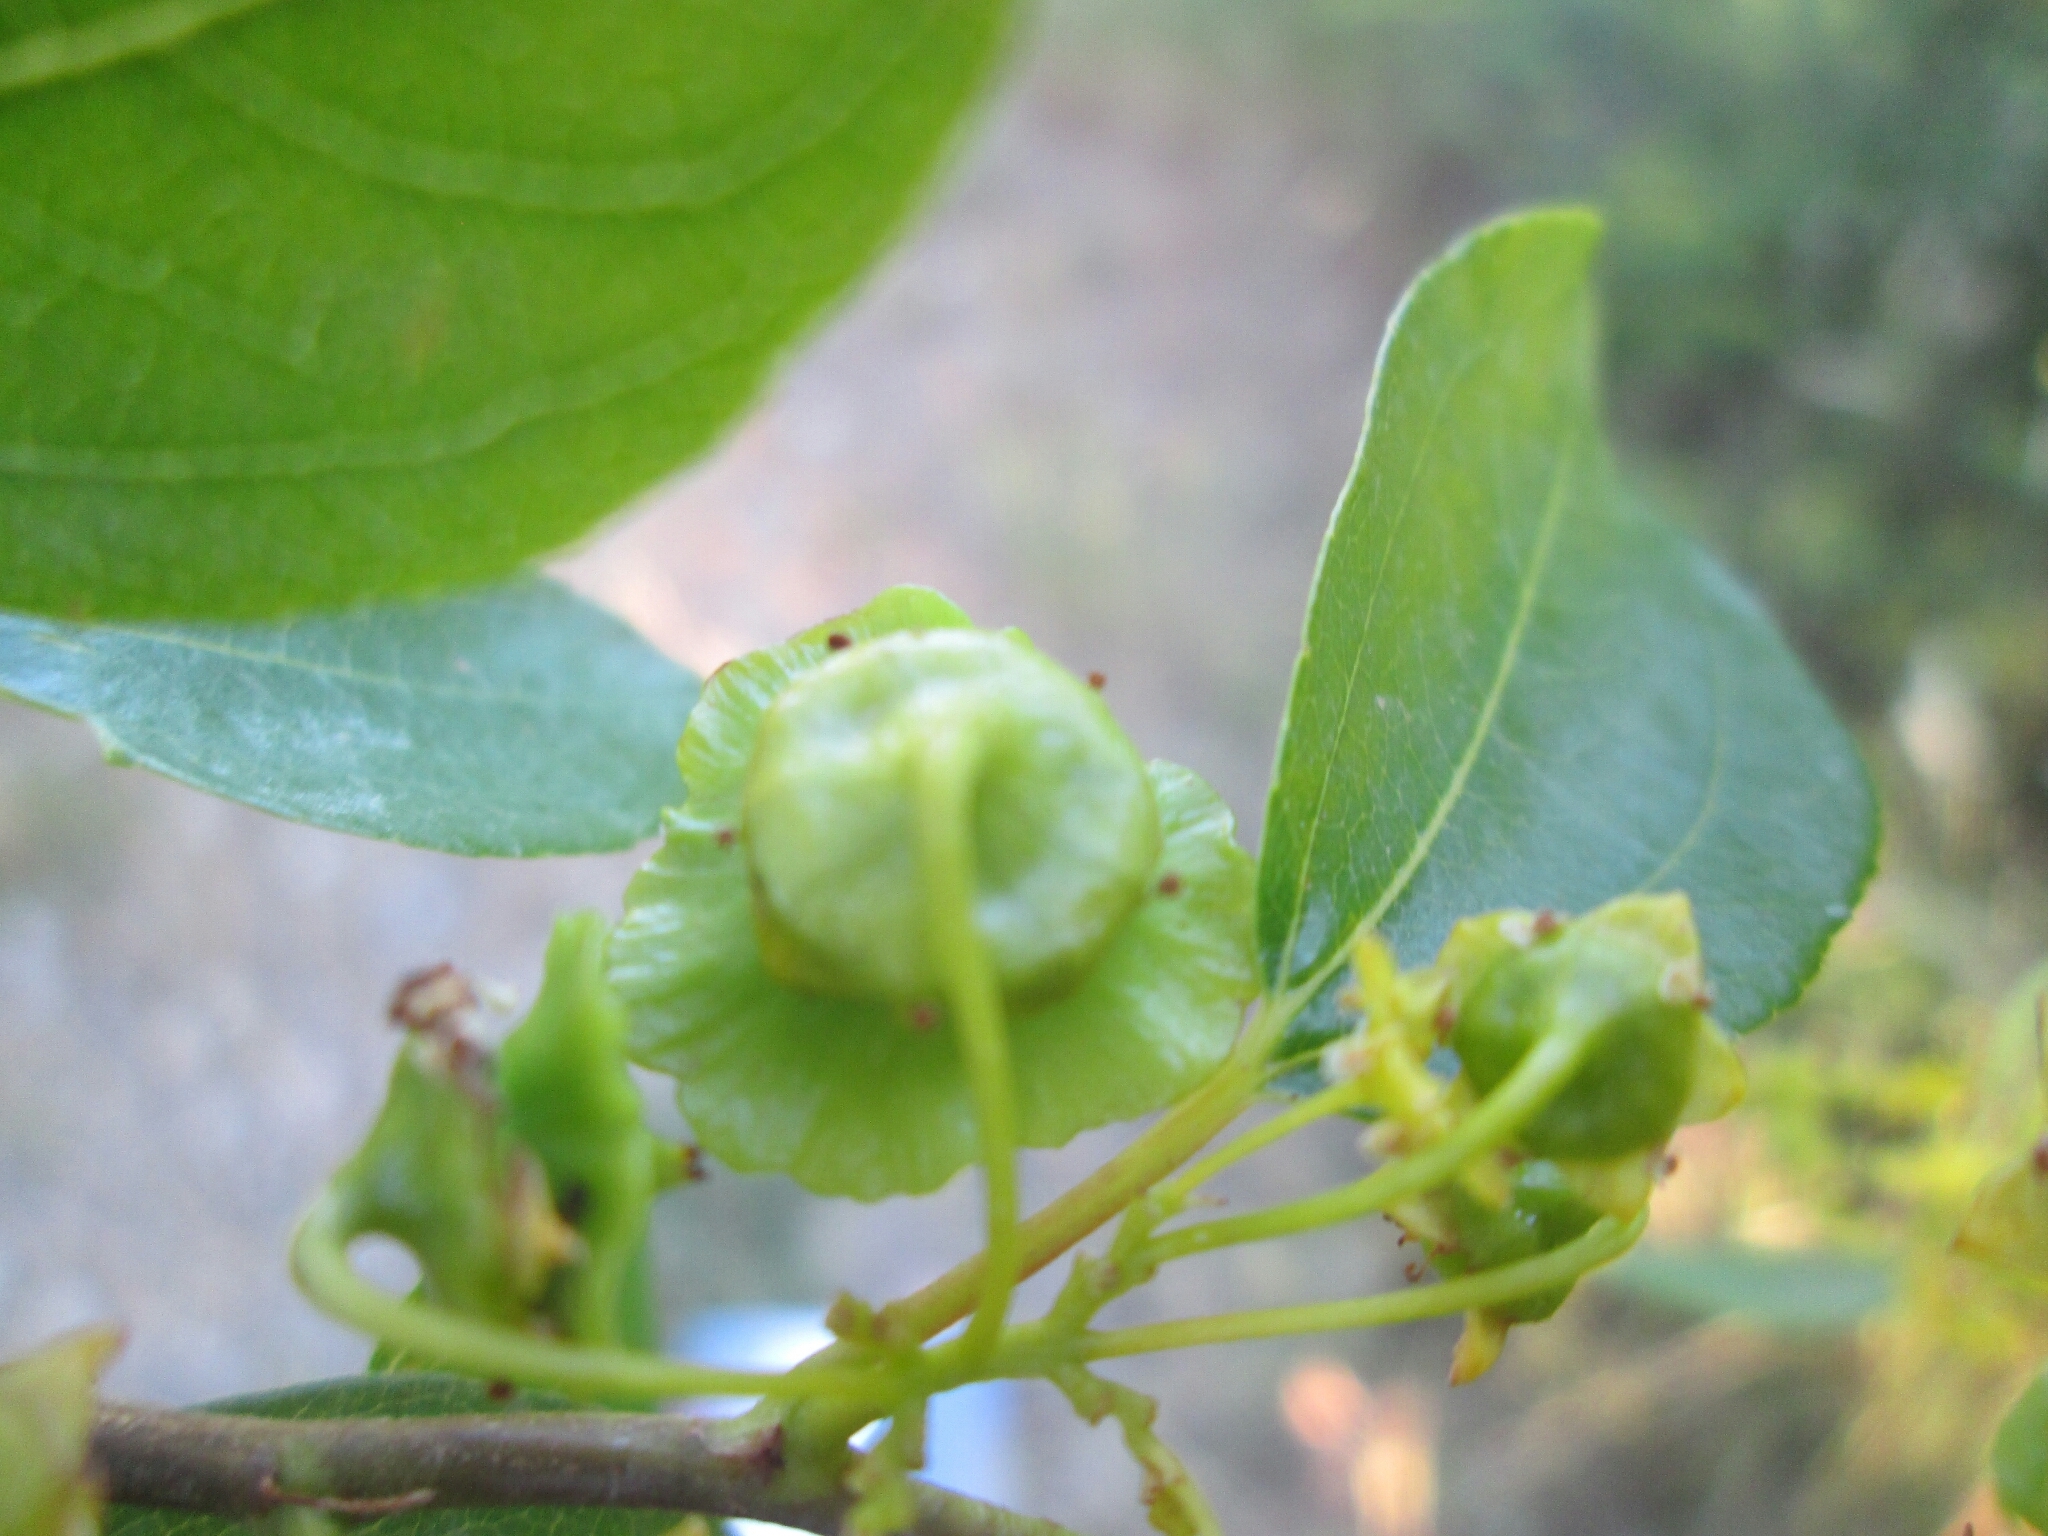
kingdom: Plantae
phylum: Tracheophyta
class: Magnoliopsida
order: Rosales
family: Rhamnaceae
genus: Paliurus
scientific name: Paliurus spina-christi
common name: Jeruselem thorn
